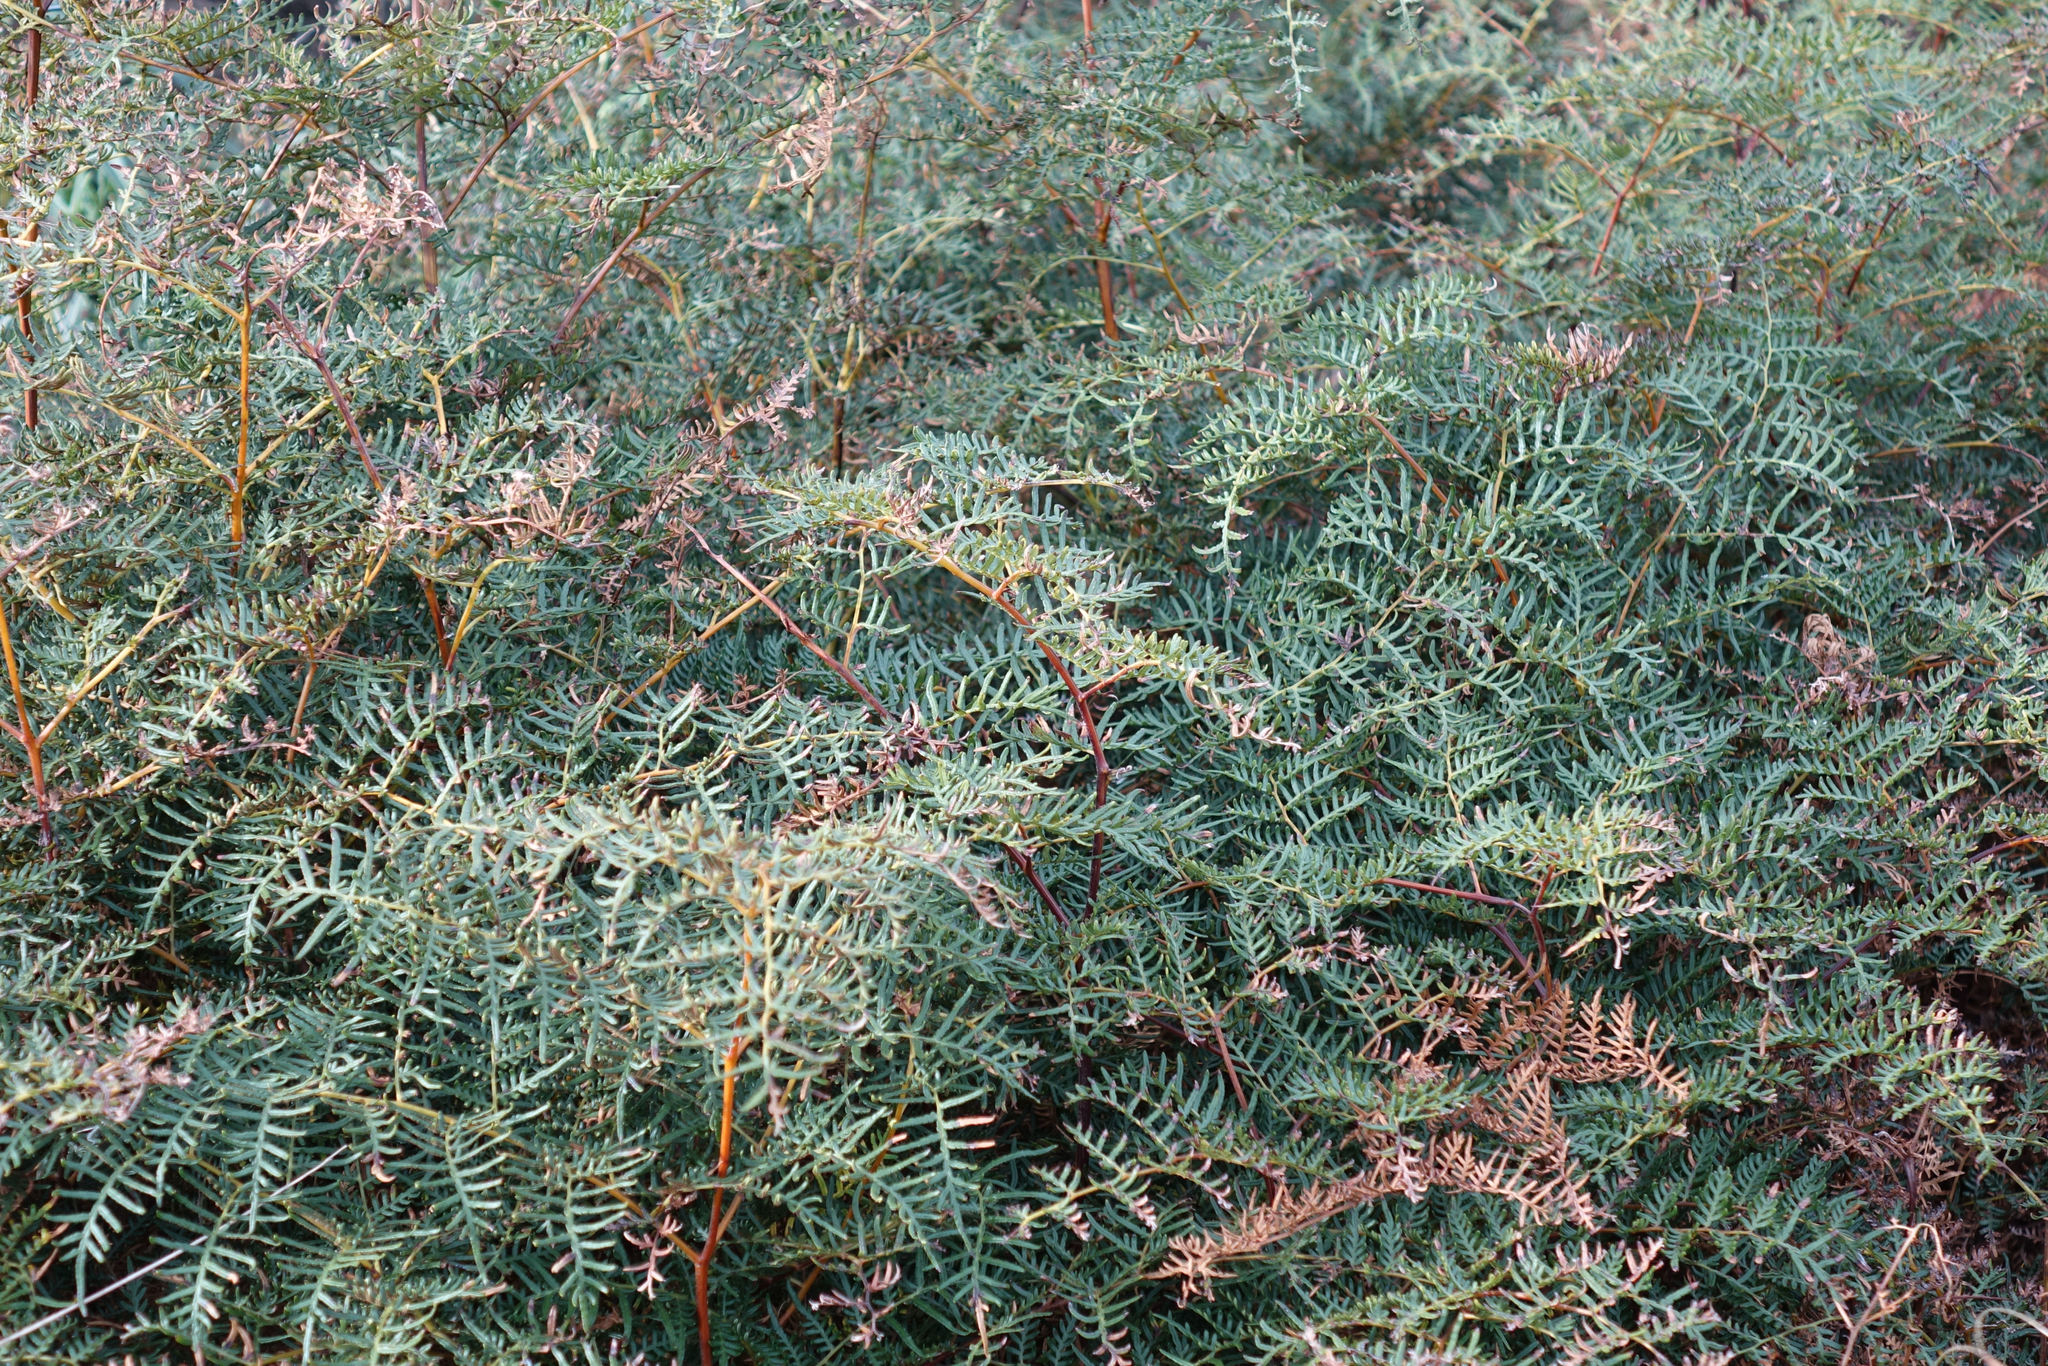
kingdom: Plantae
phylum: Tracheophyta
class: Polypodiopsida
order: Polypodiales
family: Dennstaedtiaceae
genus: Pteridium
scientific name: Pteridium esculentum
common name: Bracken fern
